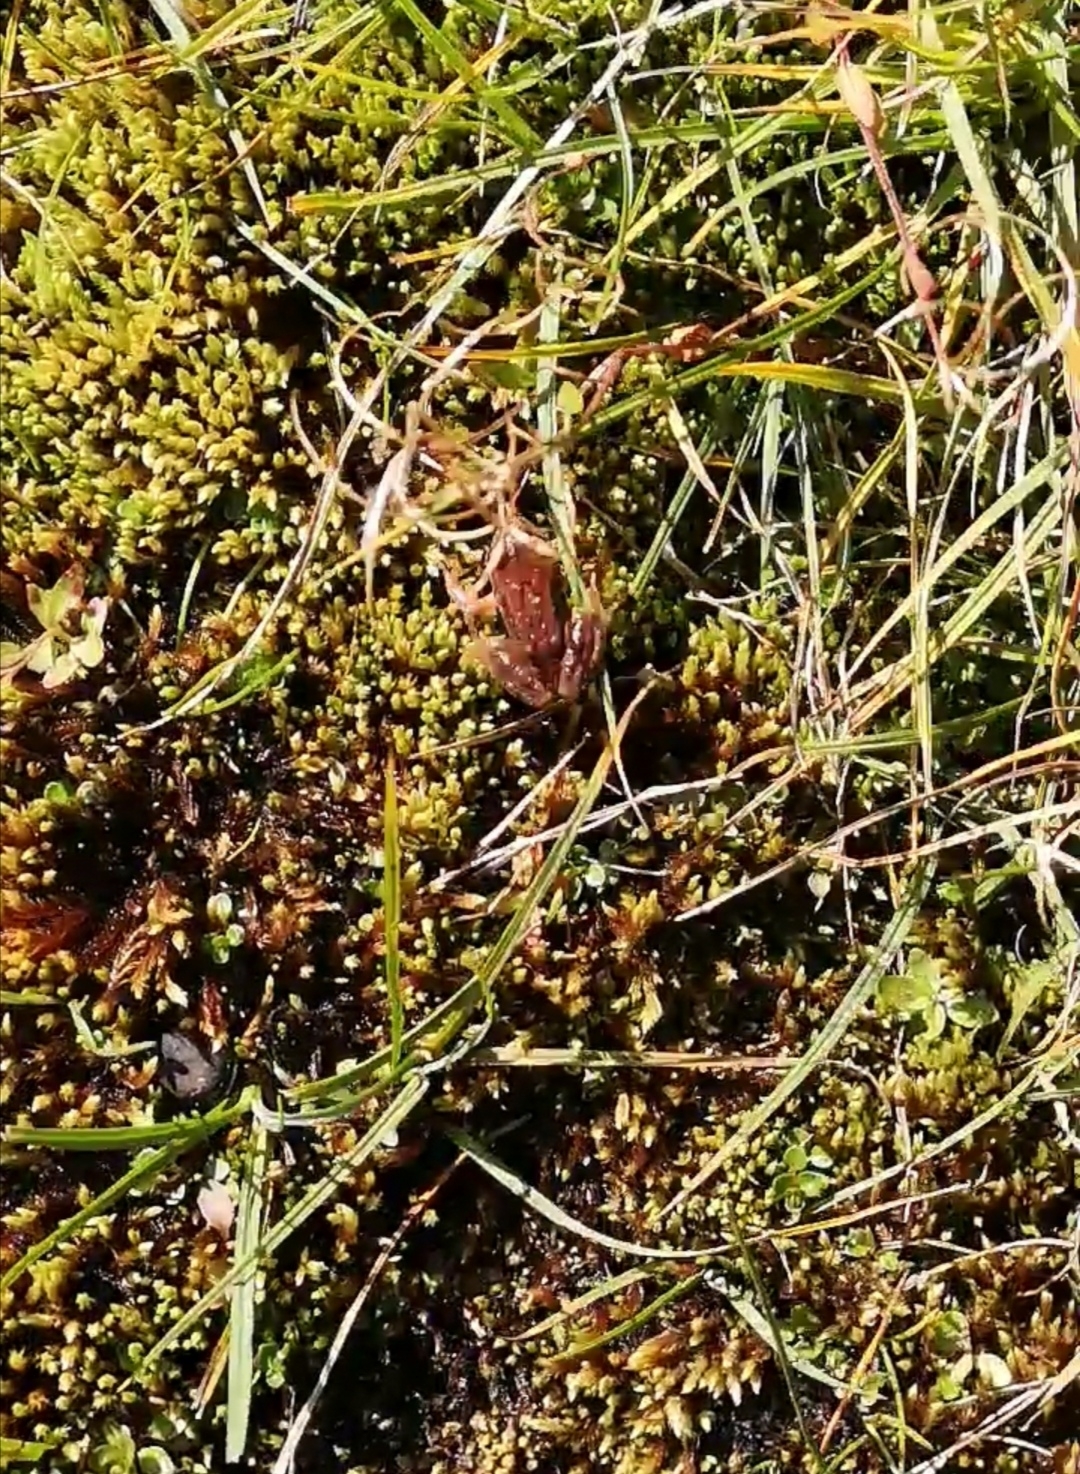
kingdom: Animalia
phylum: Chordata
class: Amphibia
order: Anura
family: Ranidae
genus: Rana
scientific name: Rana temporaria
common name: Common frog
